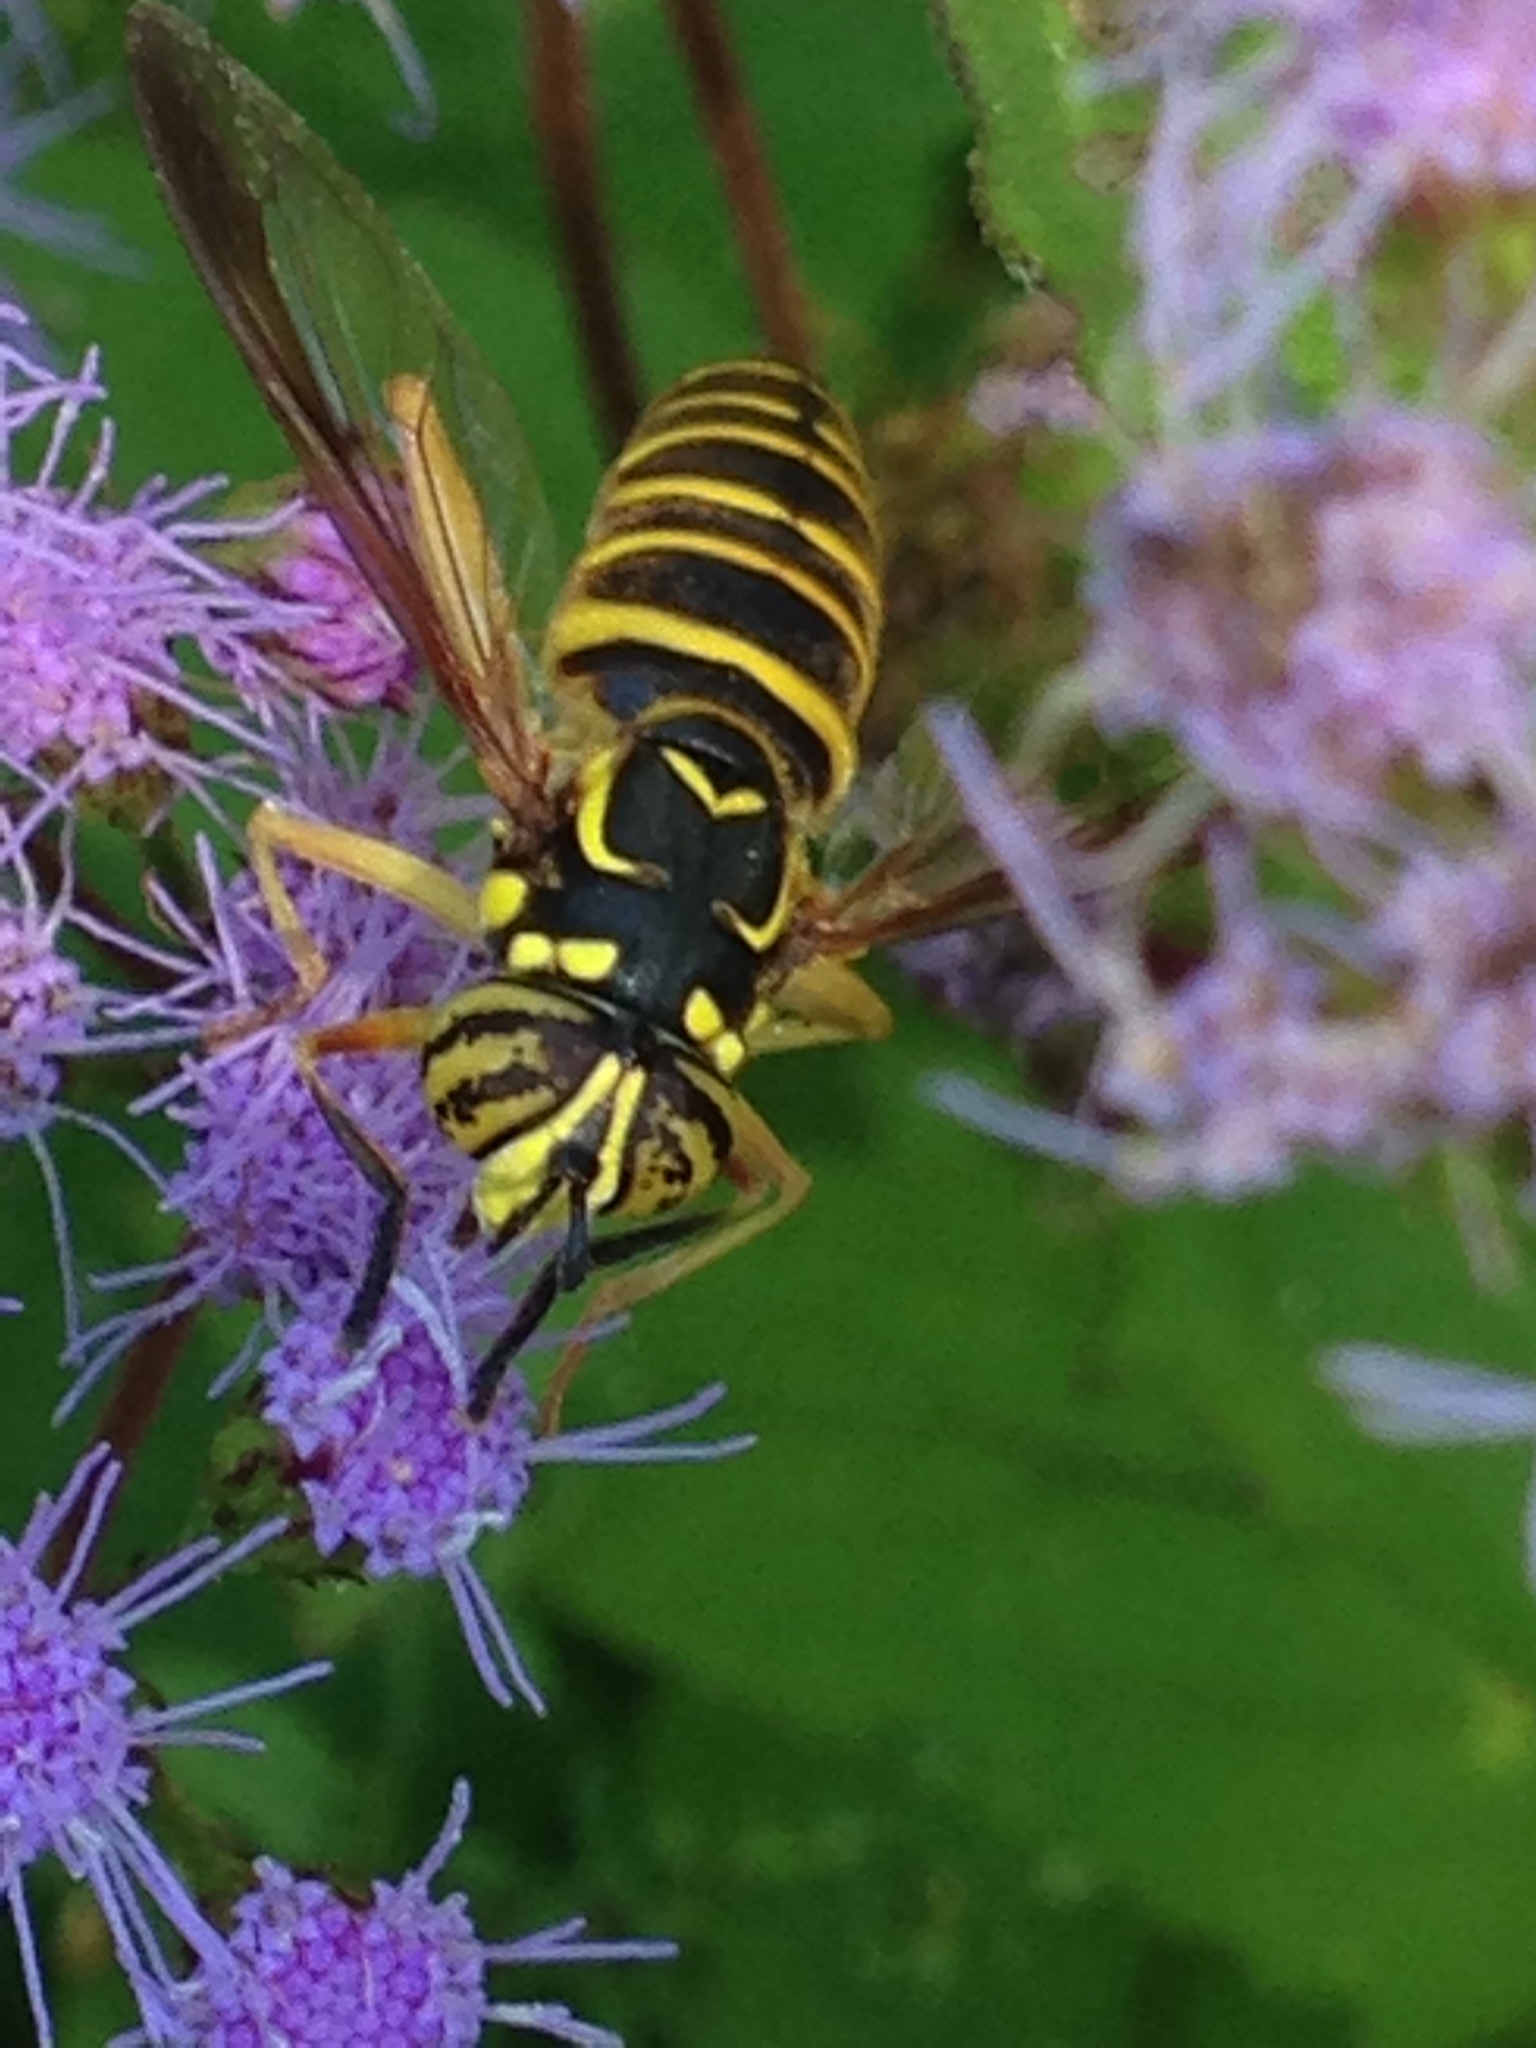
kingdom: Animalia
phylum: Arthropoda
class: Insecta
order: Diptera
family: Syrphidae
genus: Spilomyia
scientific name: Spilomyia longicornis
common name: Eastern hornet fly
